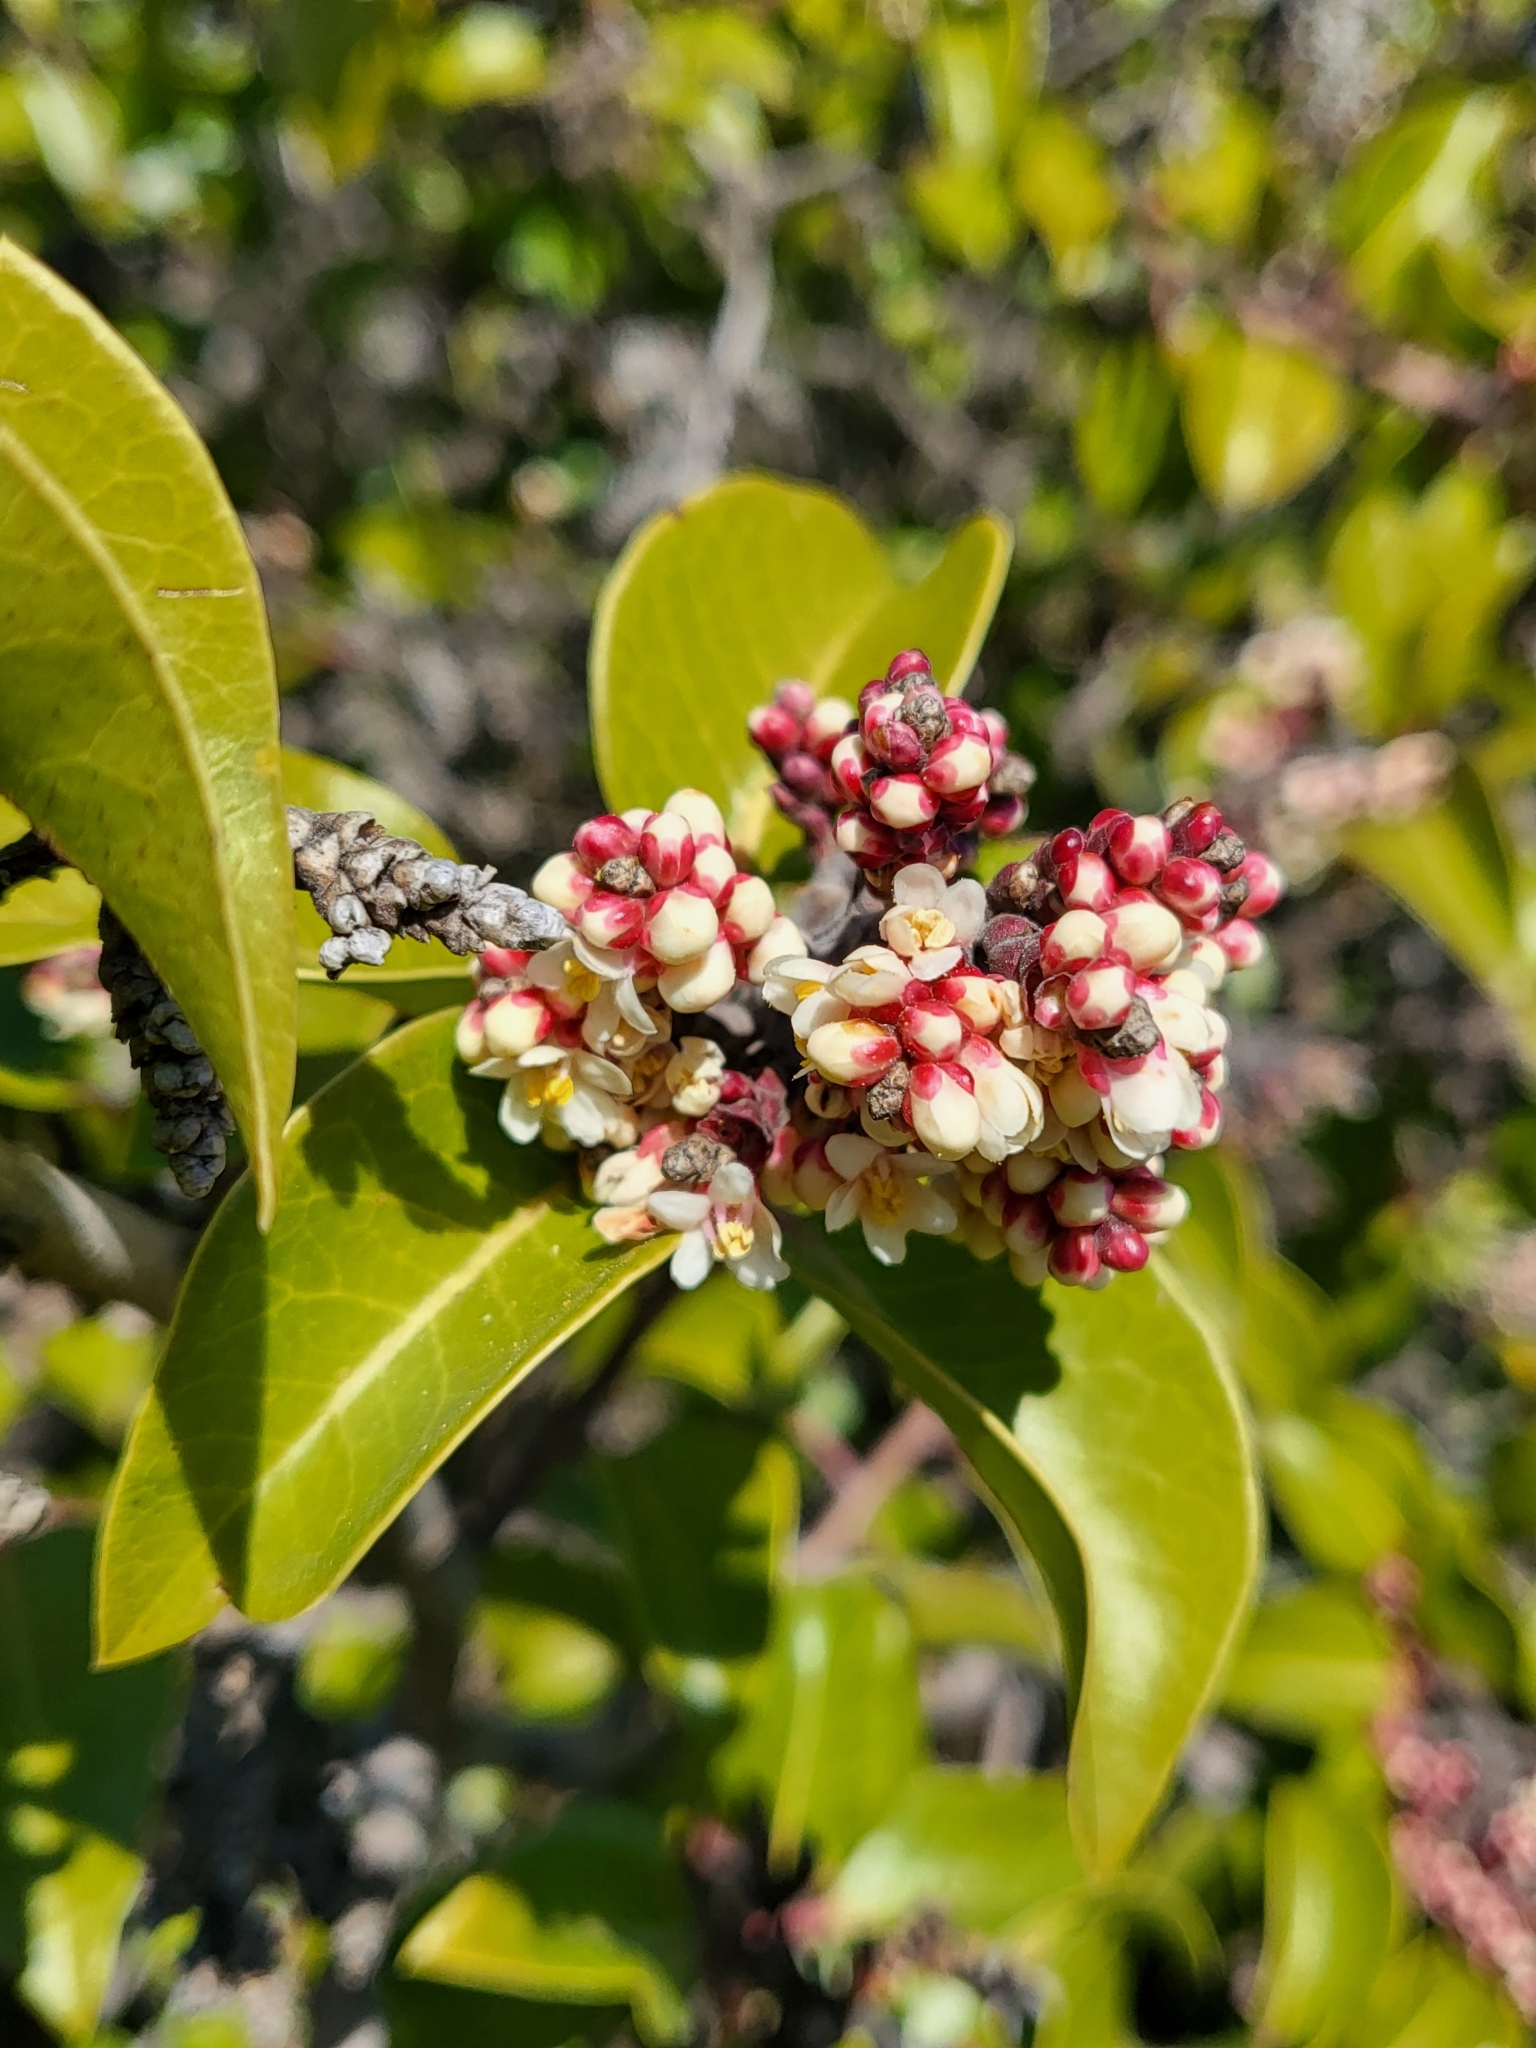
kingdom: Plantae
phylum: Tracheophyta
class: Magnoliopsida
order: Sapindales
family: Anacardiaceae
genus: Rhus
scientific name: Rhus ovata
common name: Sugar sumac
